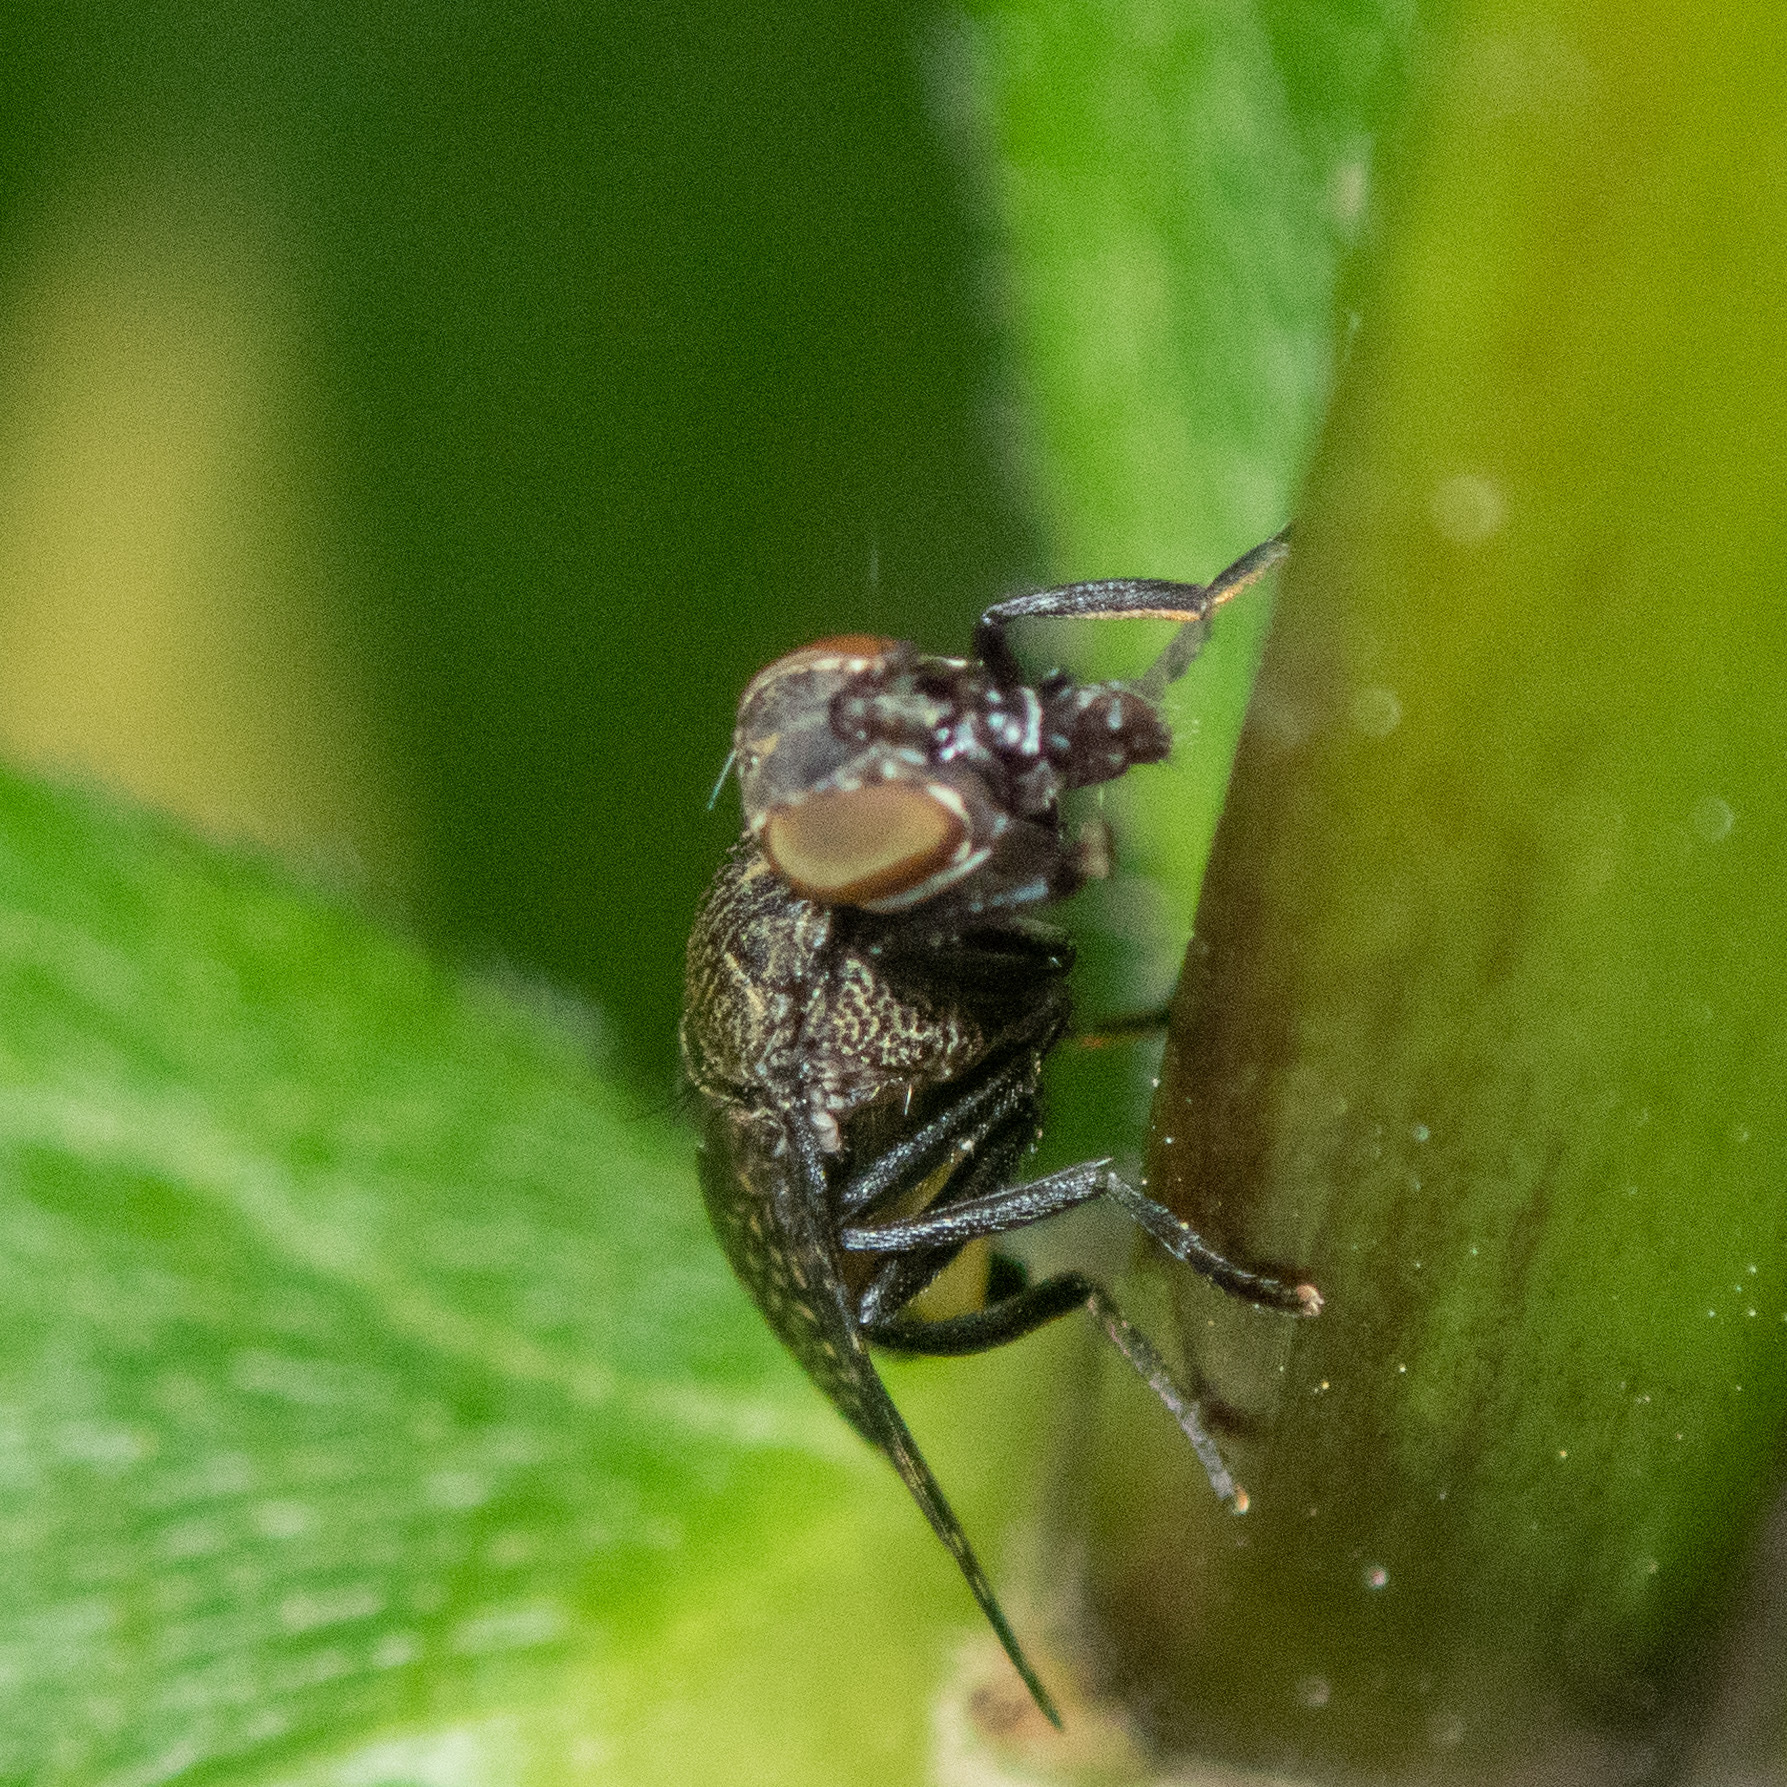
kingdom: Animalia
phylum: Arthropoda
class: Insecta
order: Diptera
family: Platystomatidae
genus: Platystoma
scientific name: Platystoma seminationis
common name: Fly
